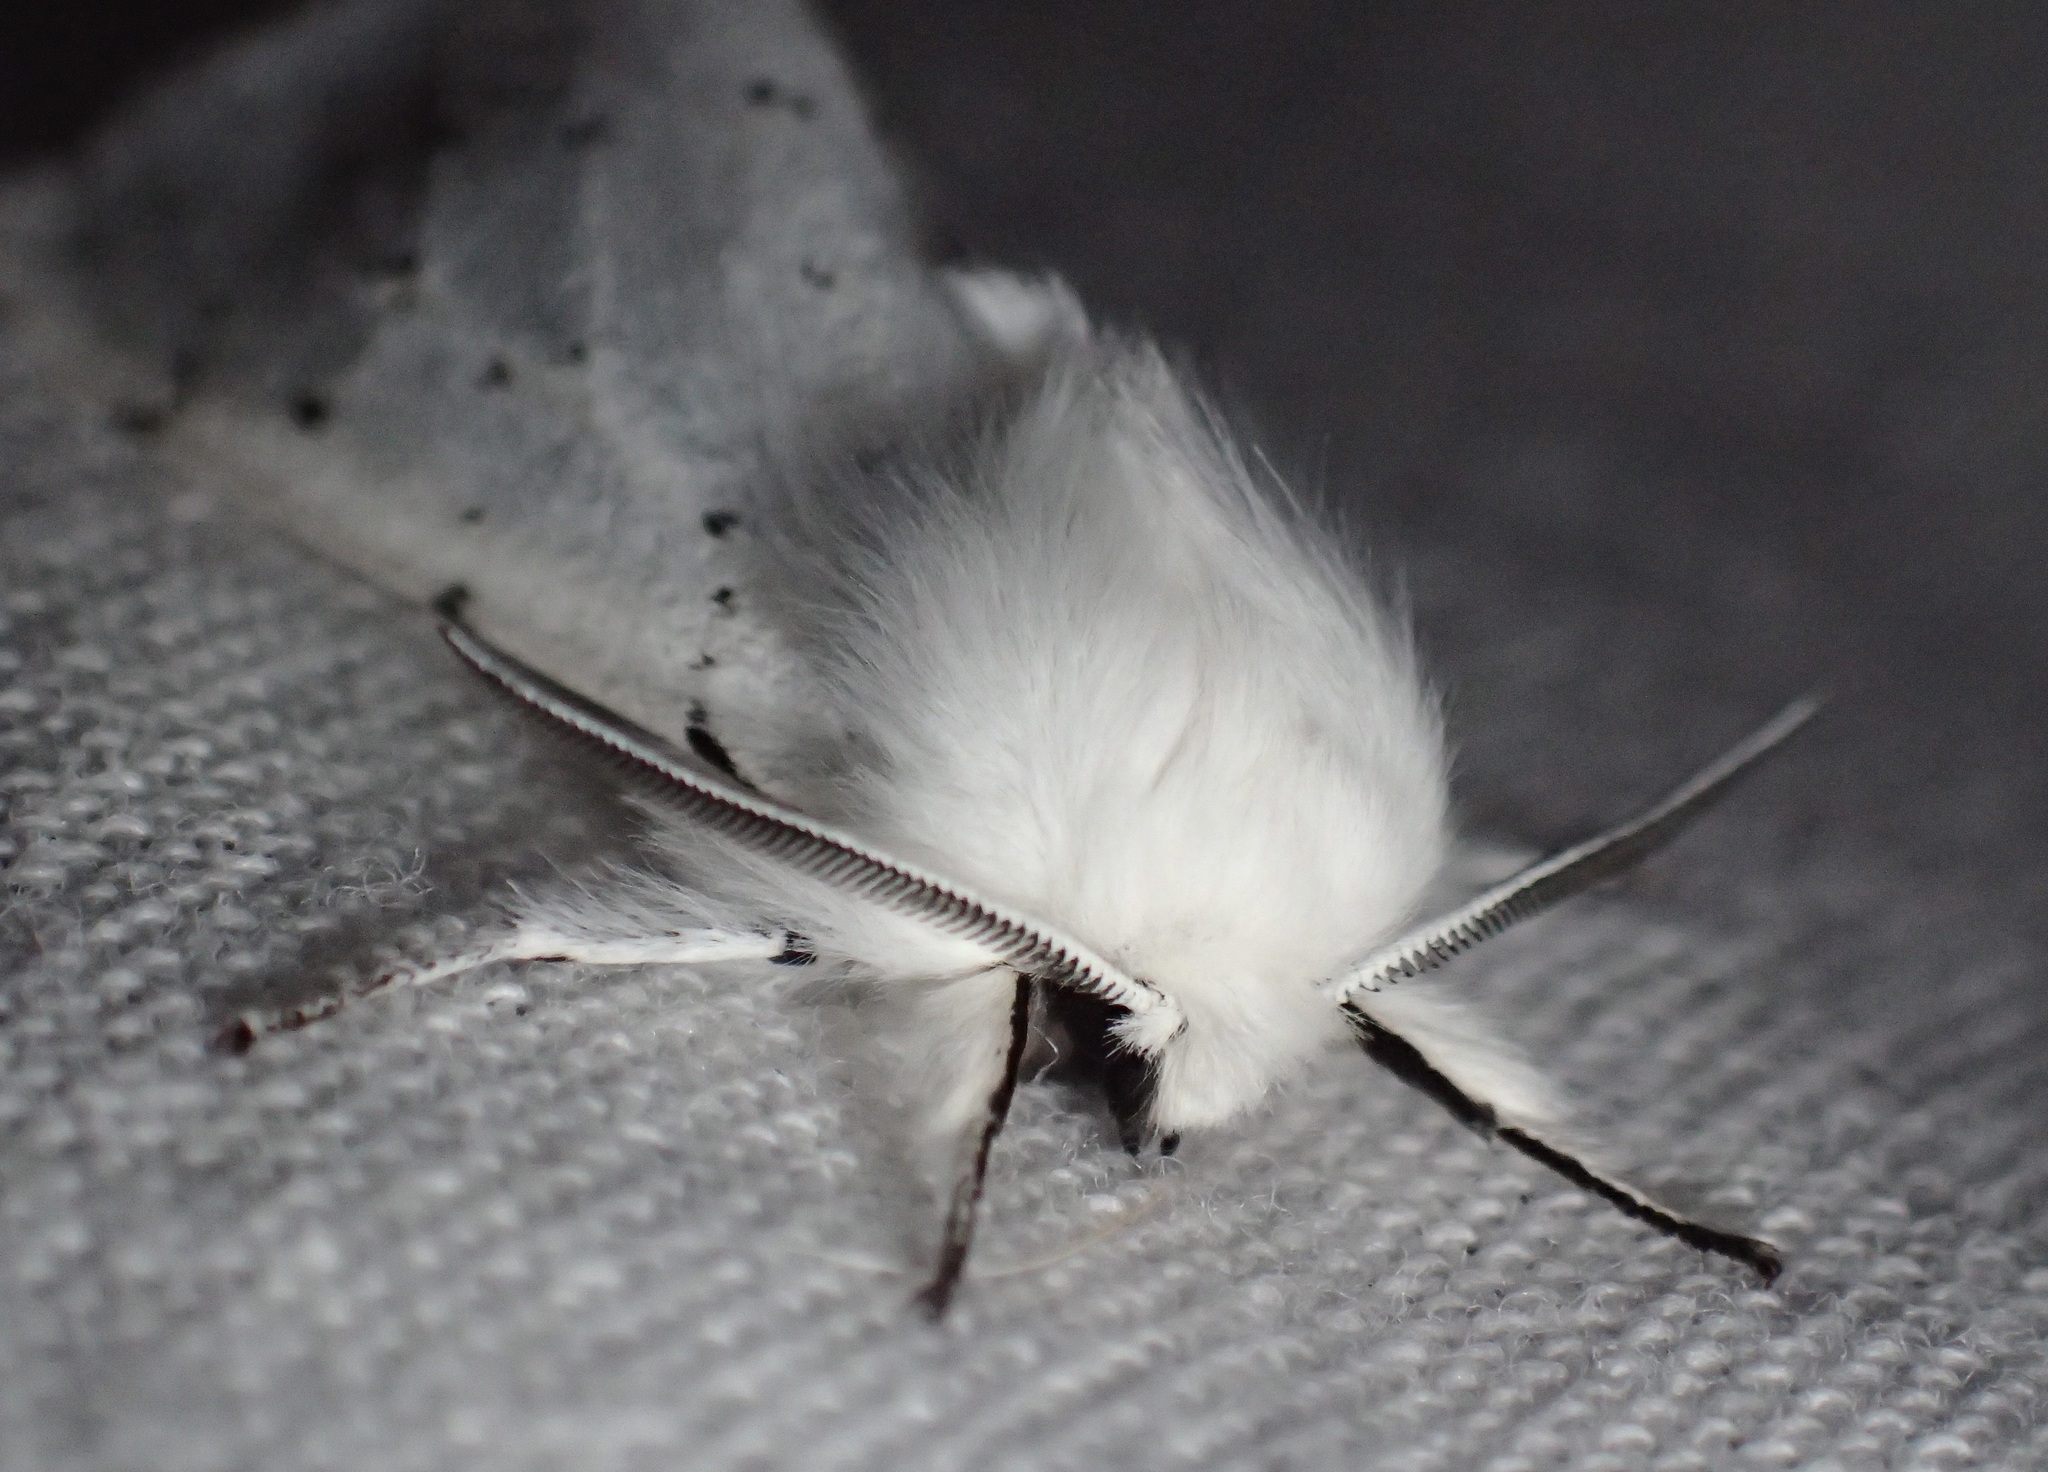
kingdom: Animalia
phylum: Arthropoda
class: Insecta
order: Lepidoptera
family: Erebidae
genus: Spilosoma
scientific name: Spilosoma vestalis
